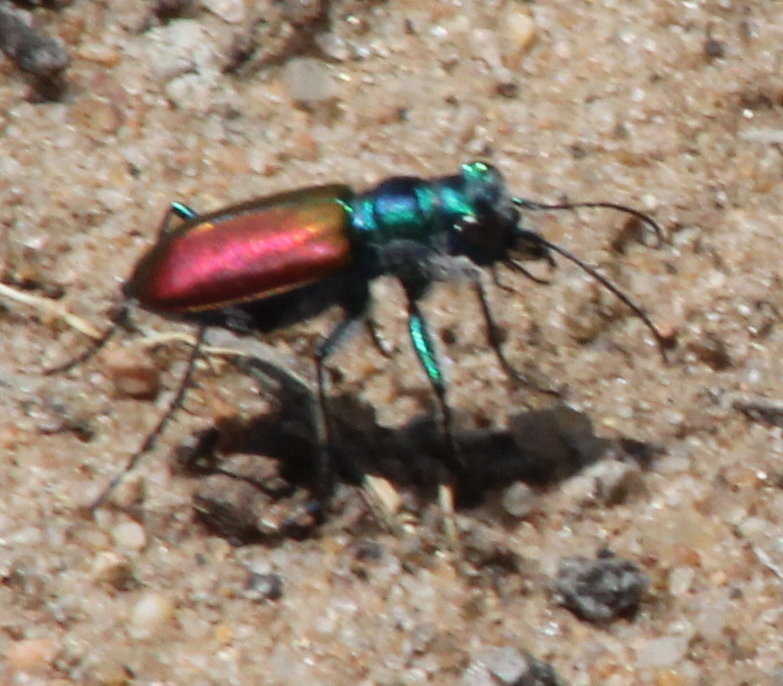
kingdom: Animalia
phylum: Arthropoda
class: Insecta
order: Coleoptera
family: Carabidae
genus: Cicindela
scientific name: Cicindela scutellaris
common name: Festive tiger beetle
